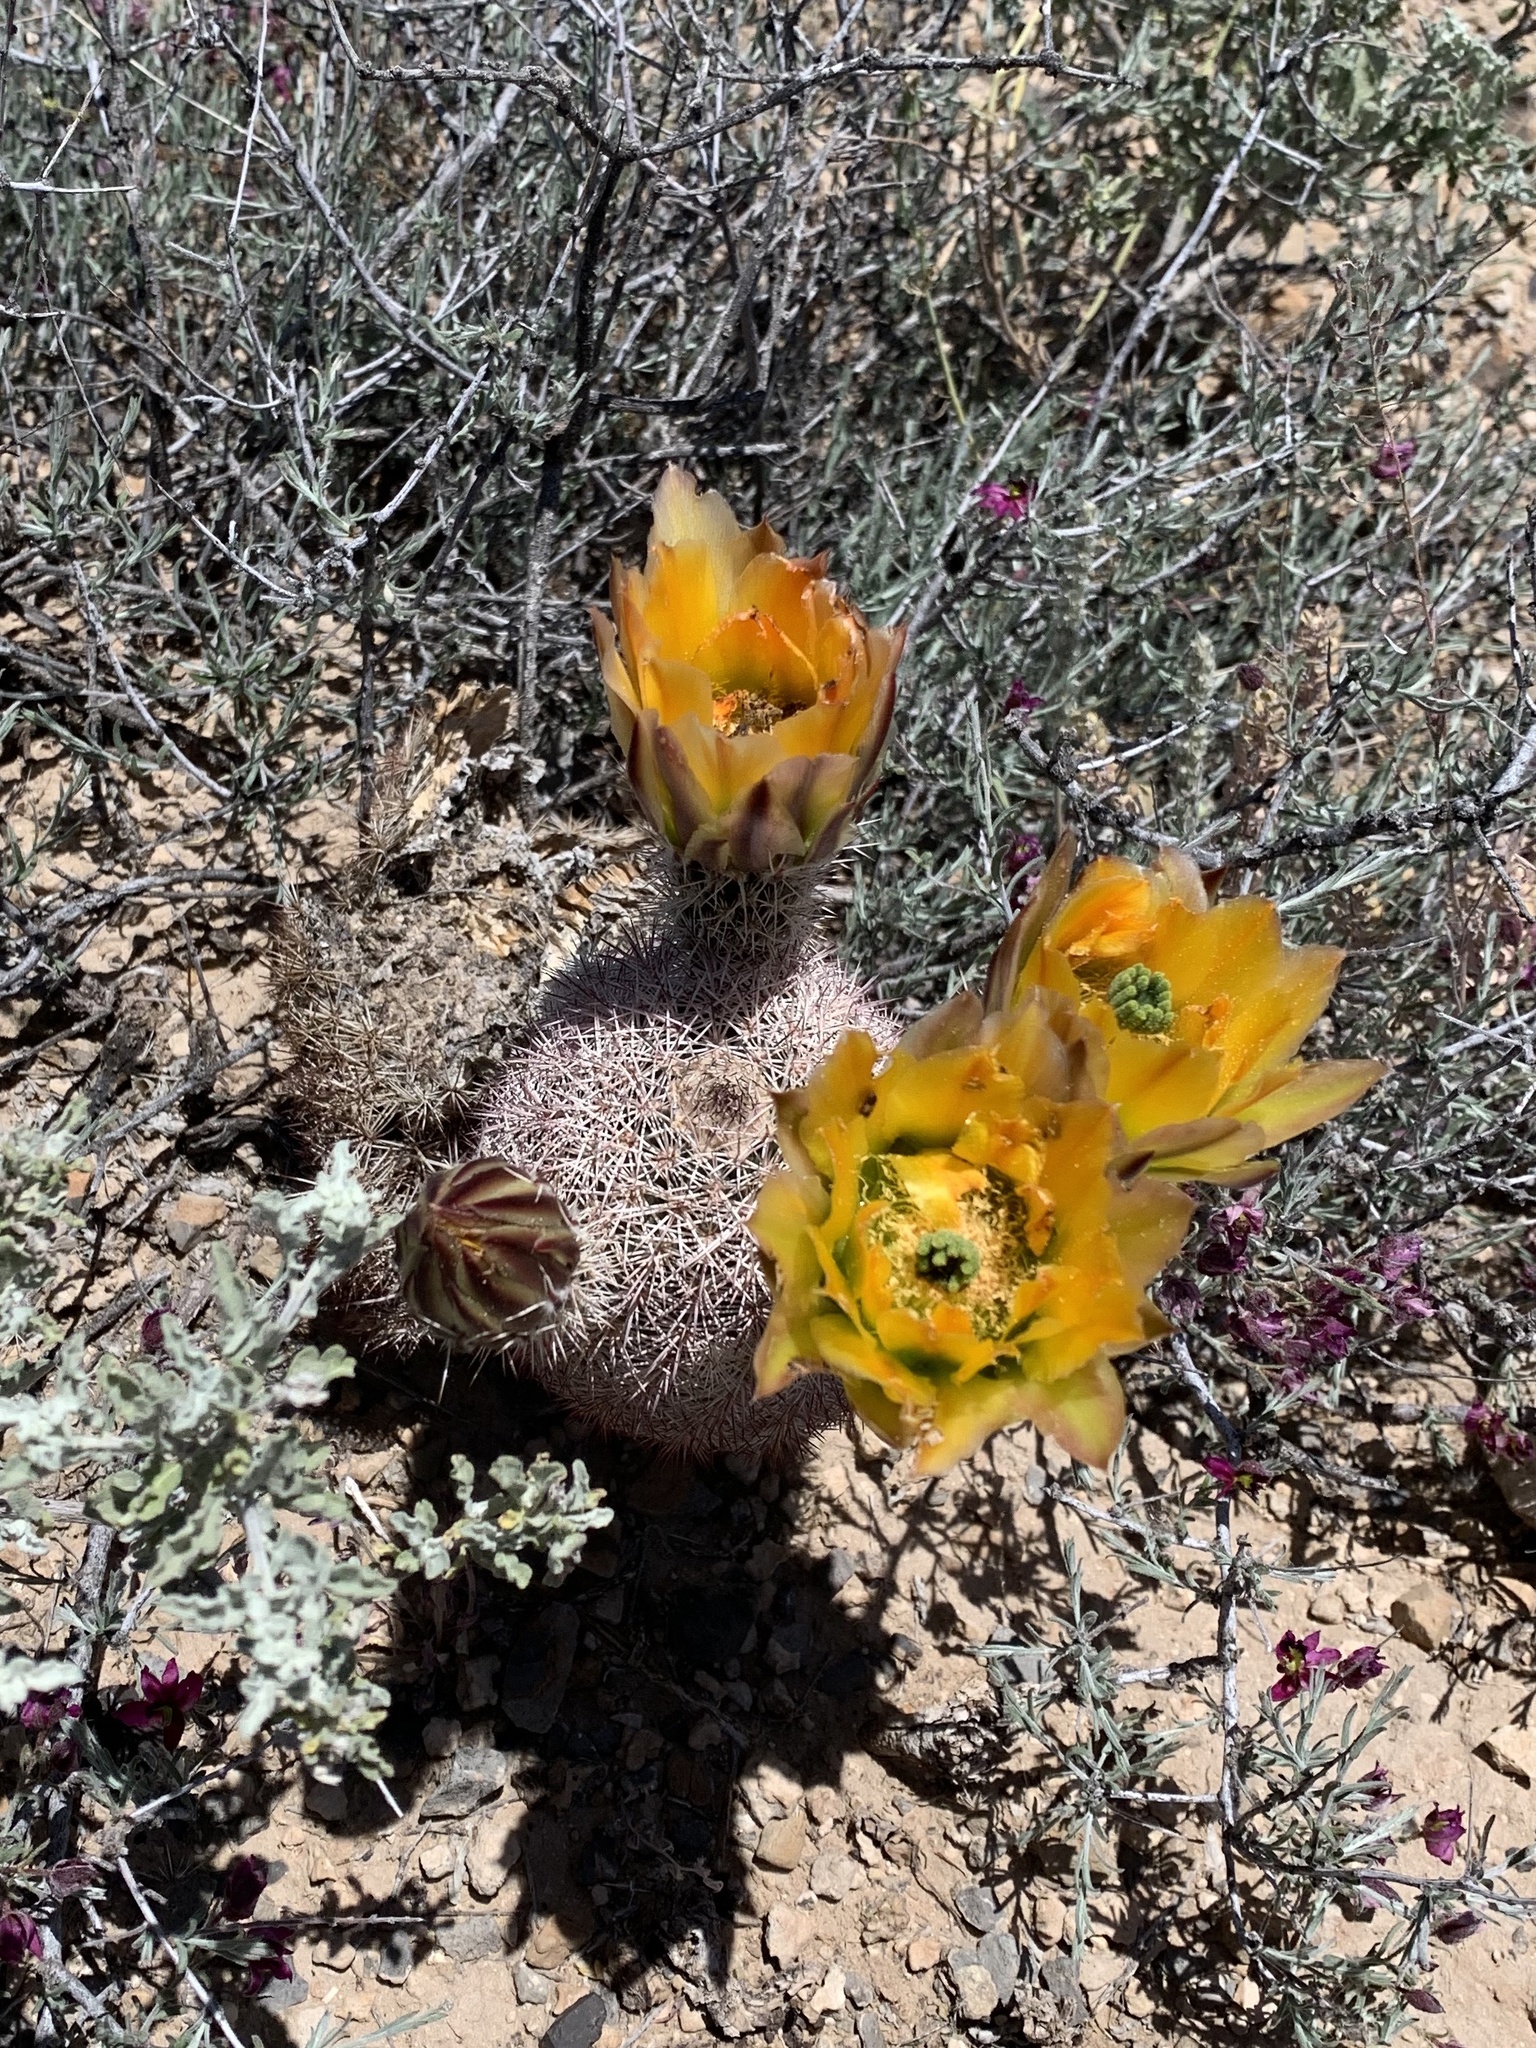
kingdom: Plantae
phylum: Tracheophyta
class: Magnoliopsida
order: Caryophyllales
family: Cactaceae
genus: Echinocereus
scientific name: Echinocereus dasyacanthus
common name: Spiny hedgehog cactus
